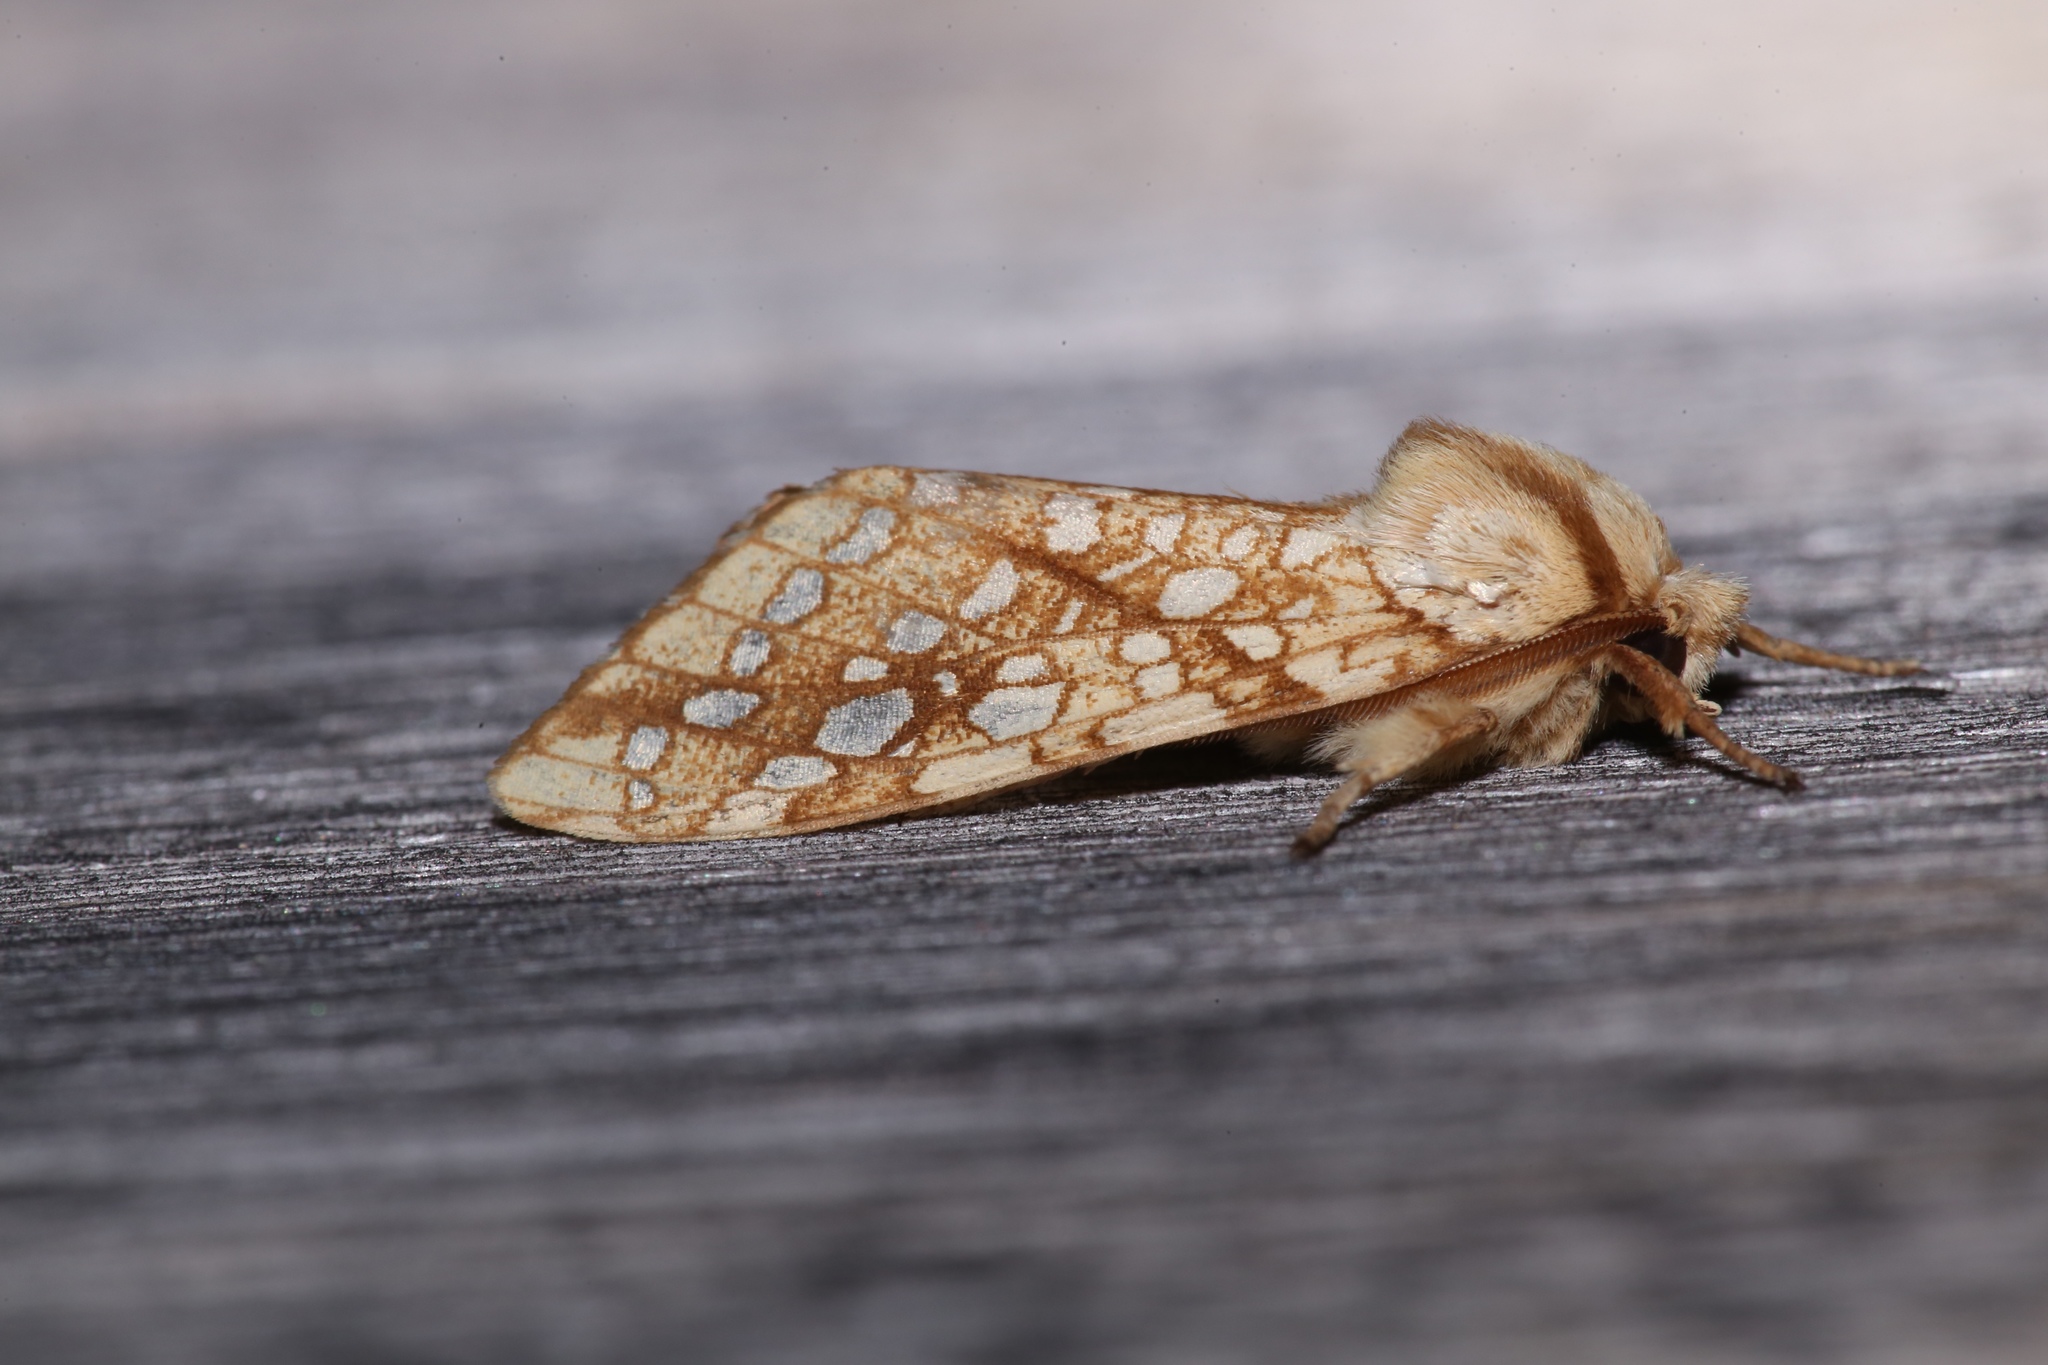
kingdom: Animalia
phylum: Arthropoda
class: Insecta
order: Lepidoptera
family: Erebidae
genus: Lophocampa
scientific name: Lophocampa caryae
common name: Hickory tussock moth
